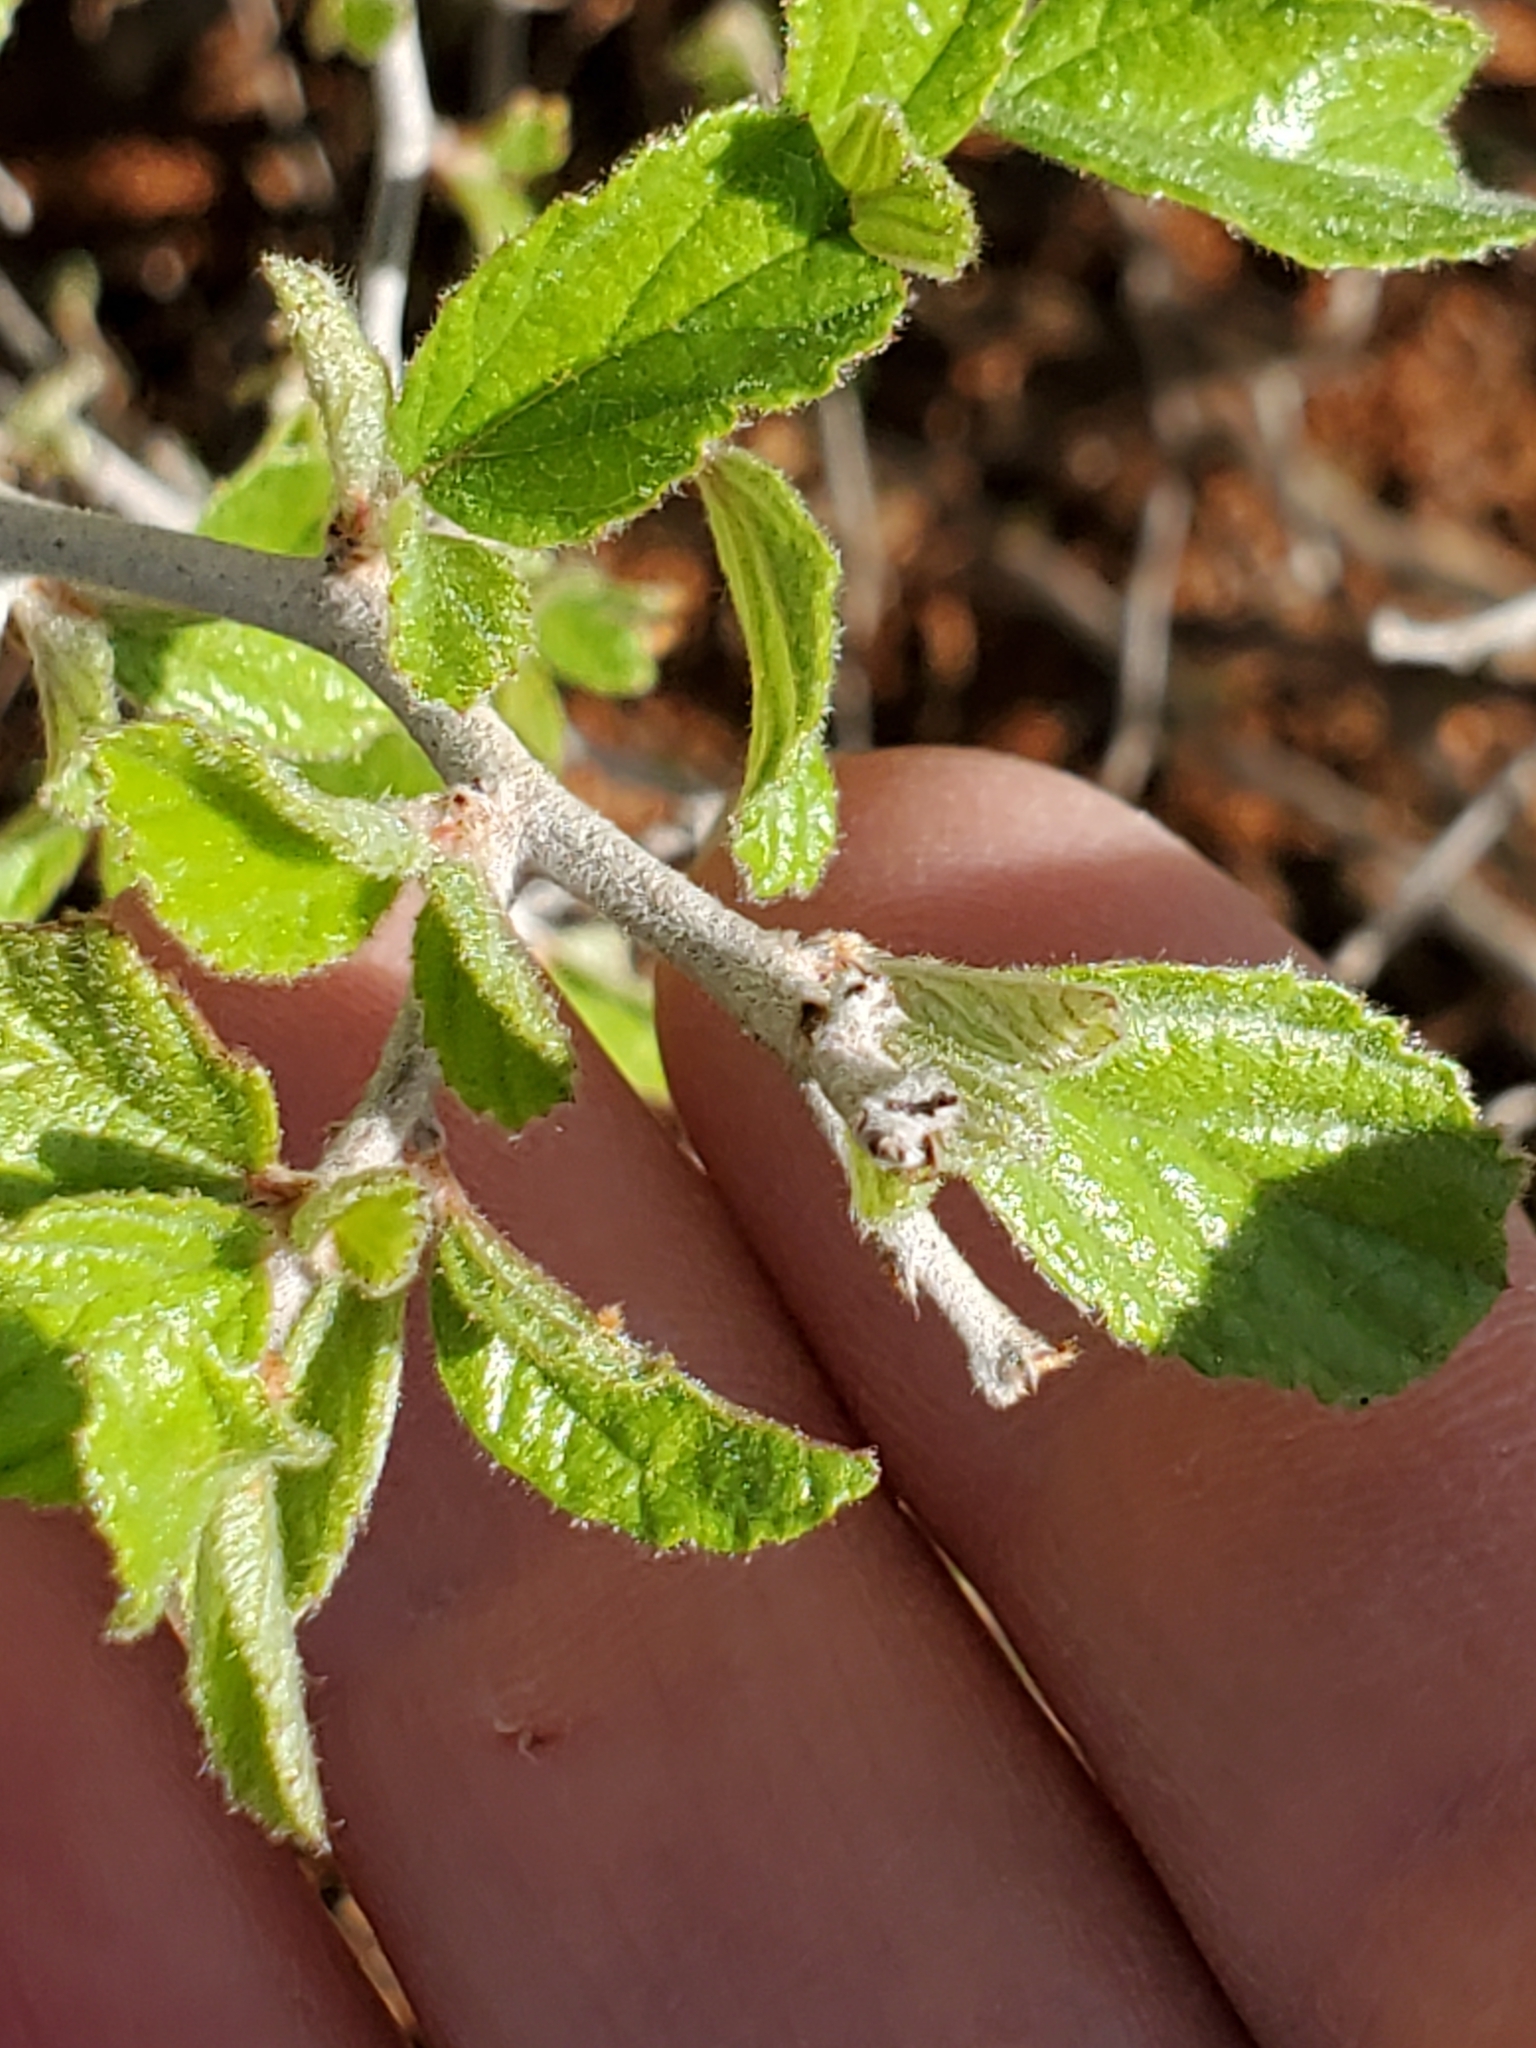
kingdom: Plantae
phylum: Tracheophyta
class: Magnoliopsida
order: Rosales
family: Rhamnaceae
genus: Colubrina
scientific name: Colubrina texensis
